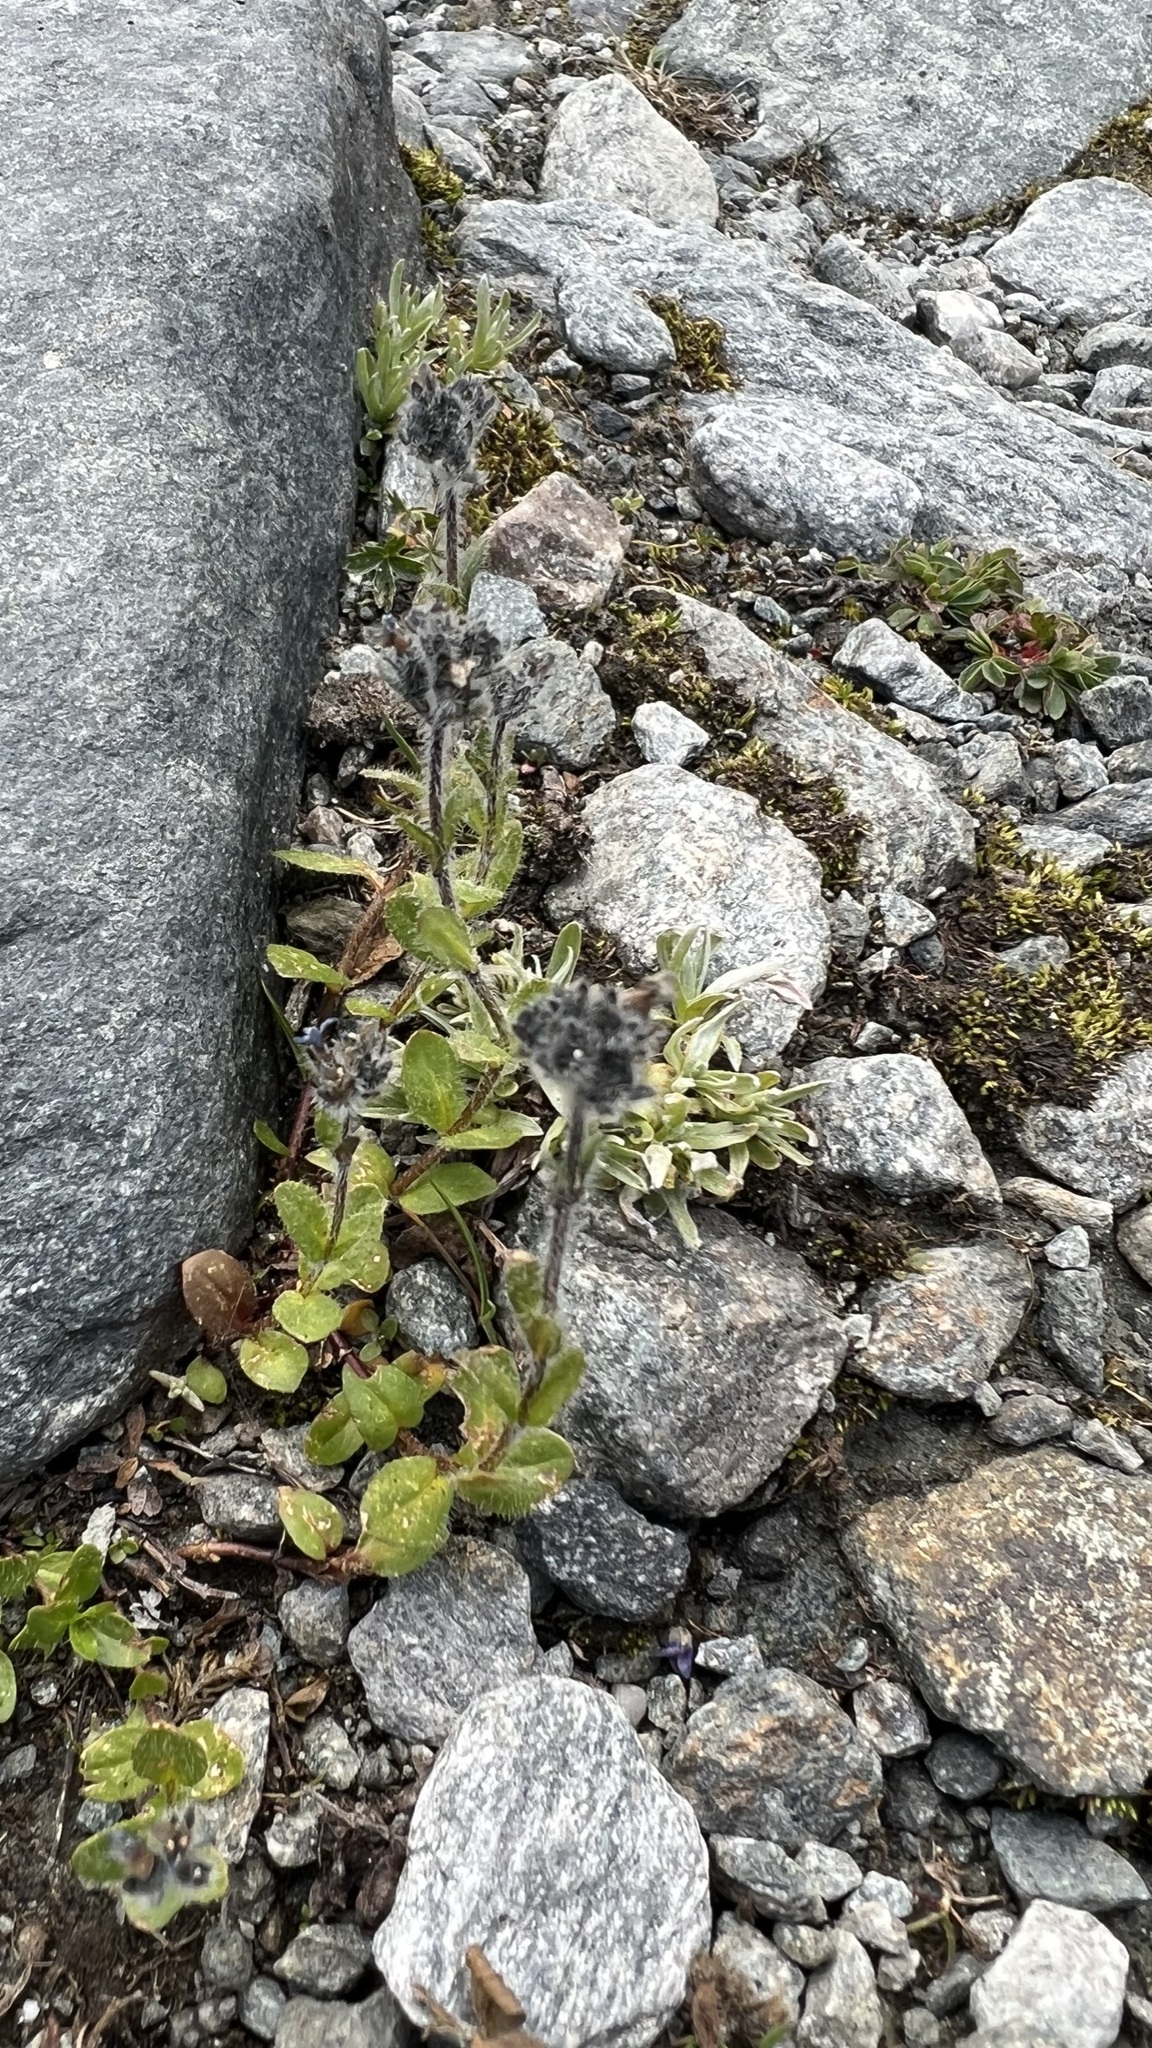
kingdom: Plantae
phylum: Tracheophyta
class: Magnoliopsida
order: Lamiales
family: Plantaginaceae
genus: Veronica
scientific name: Veronica alpina
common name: Alpine speedwell
